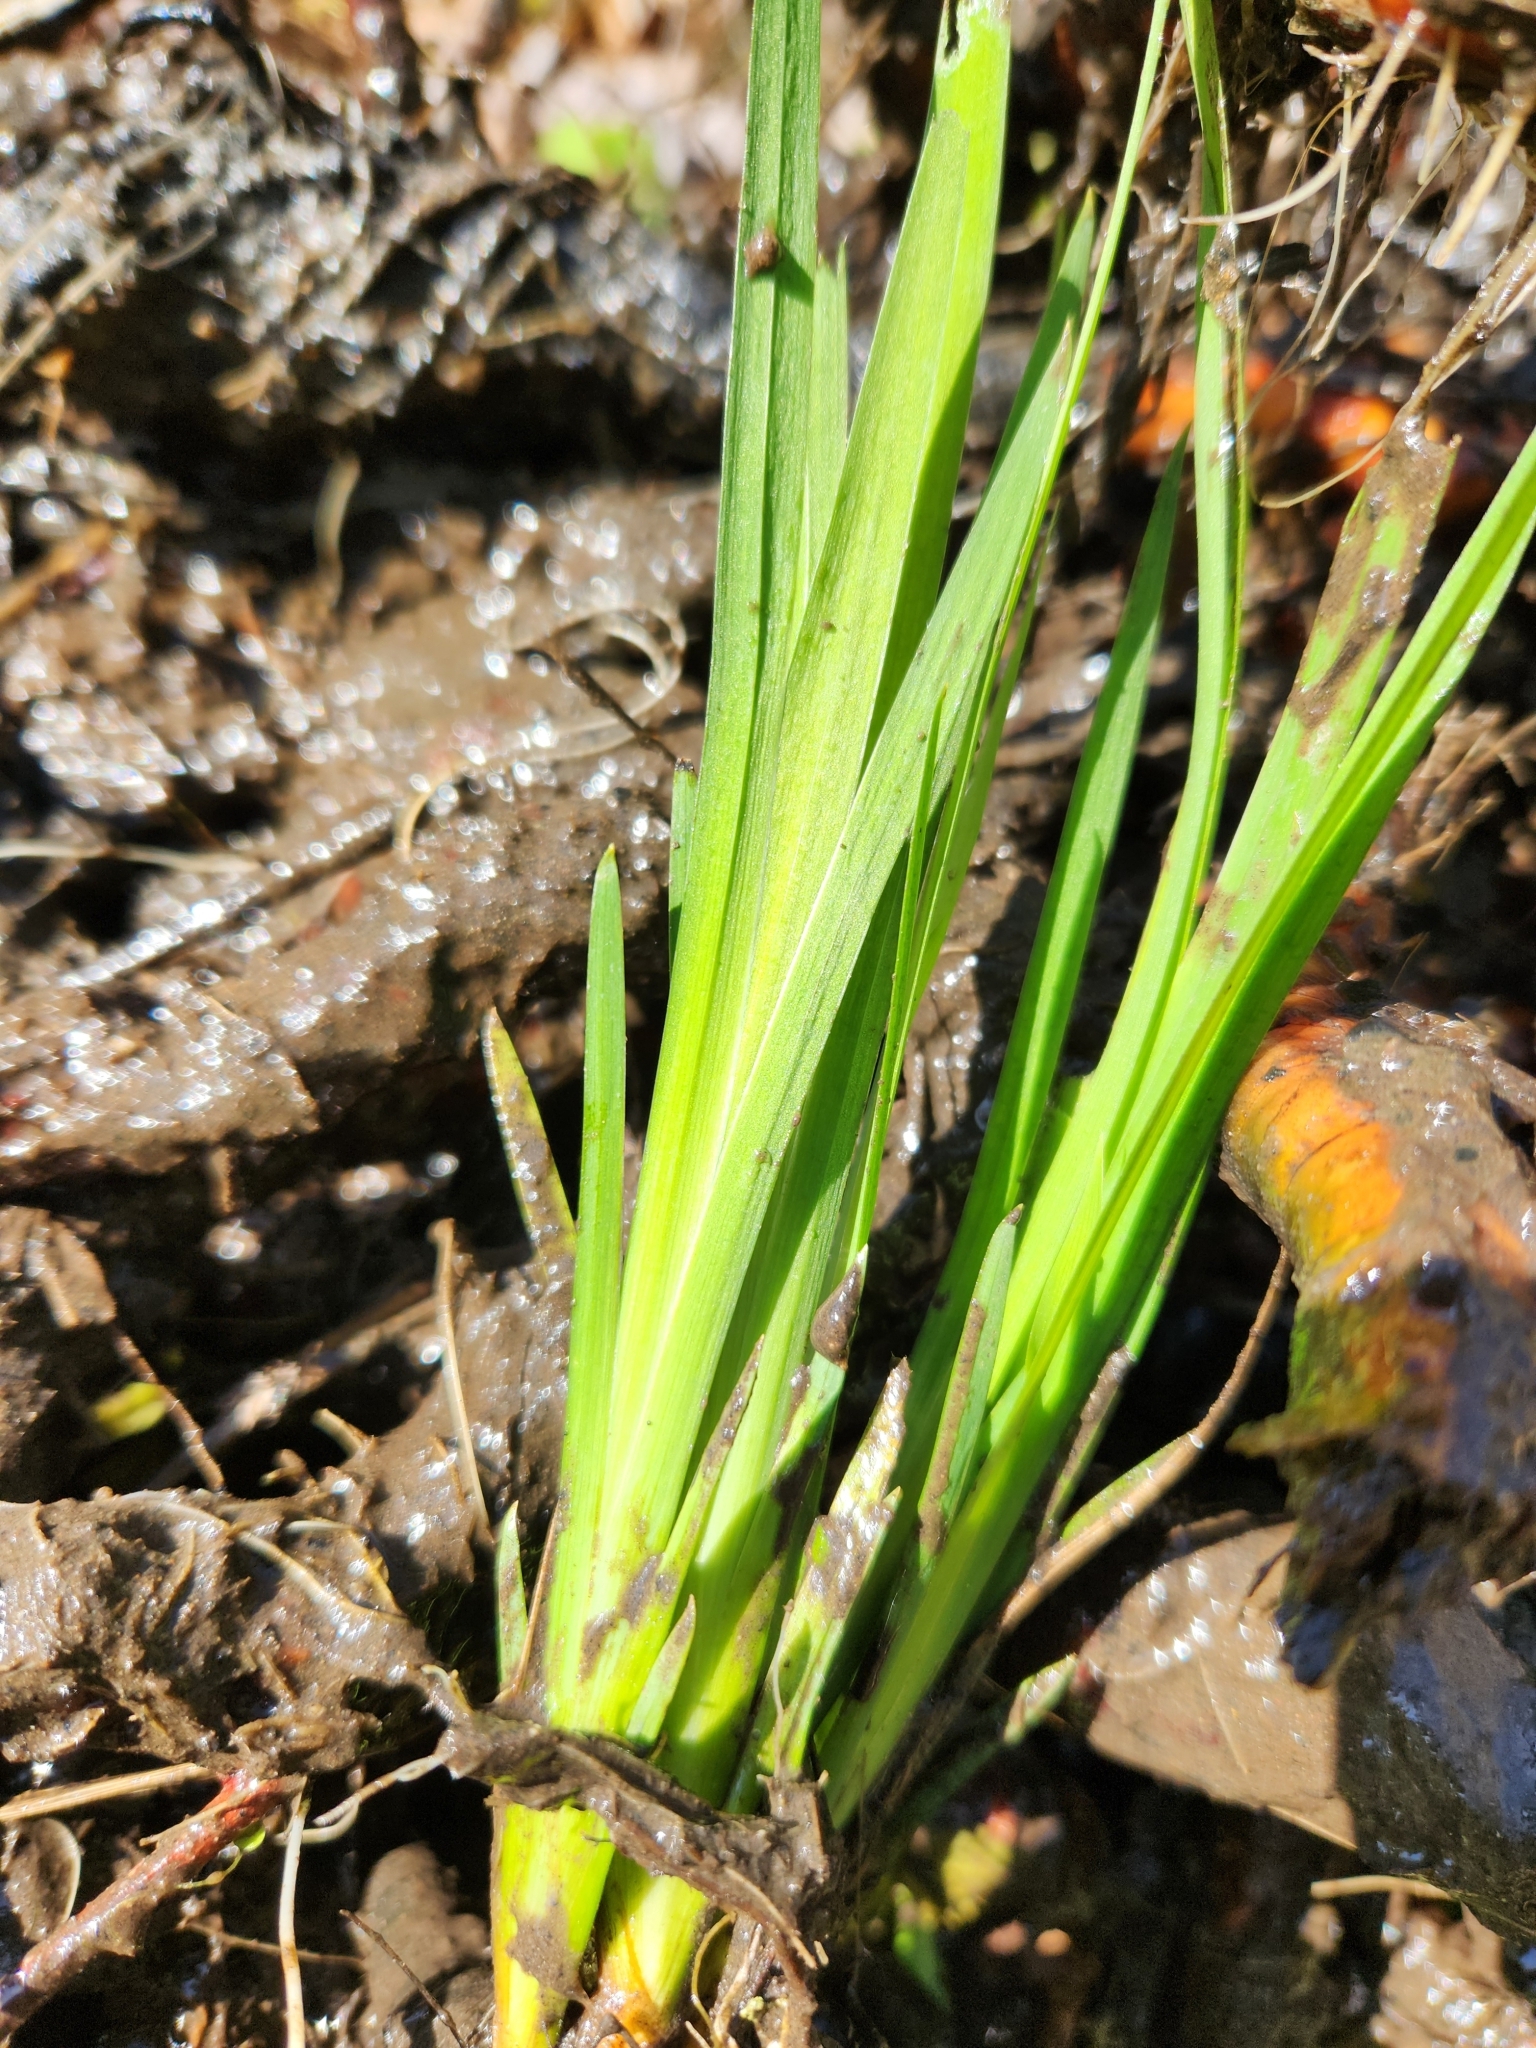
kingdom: Plantae
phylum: Tracheophyta
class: Liliopsida
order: Asparagales
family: Iridaceae
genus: Iris
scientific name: Iris pseudacorus
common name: Yellow flag
